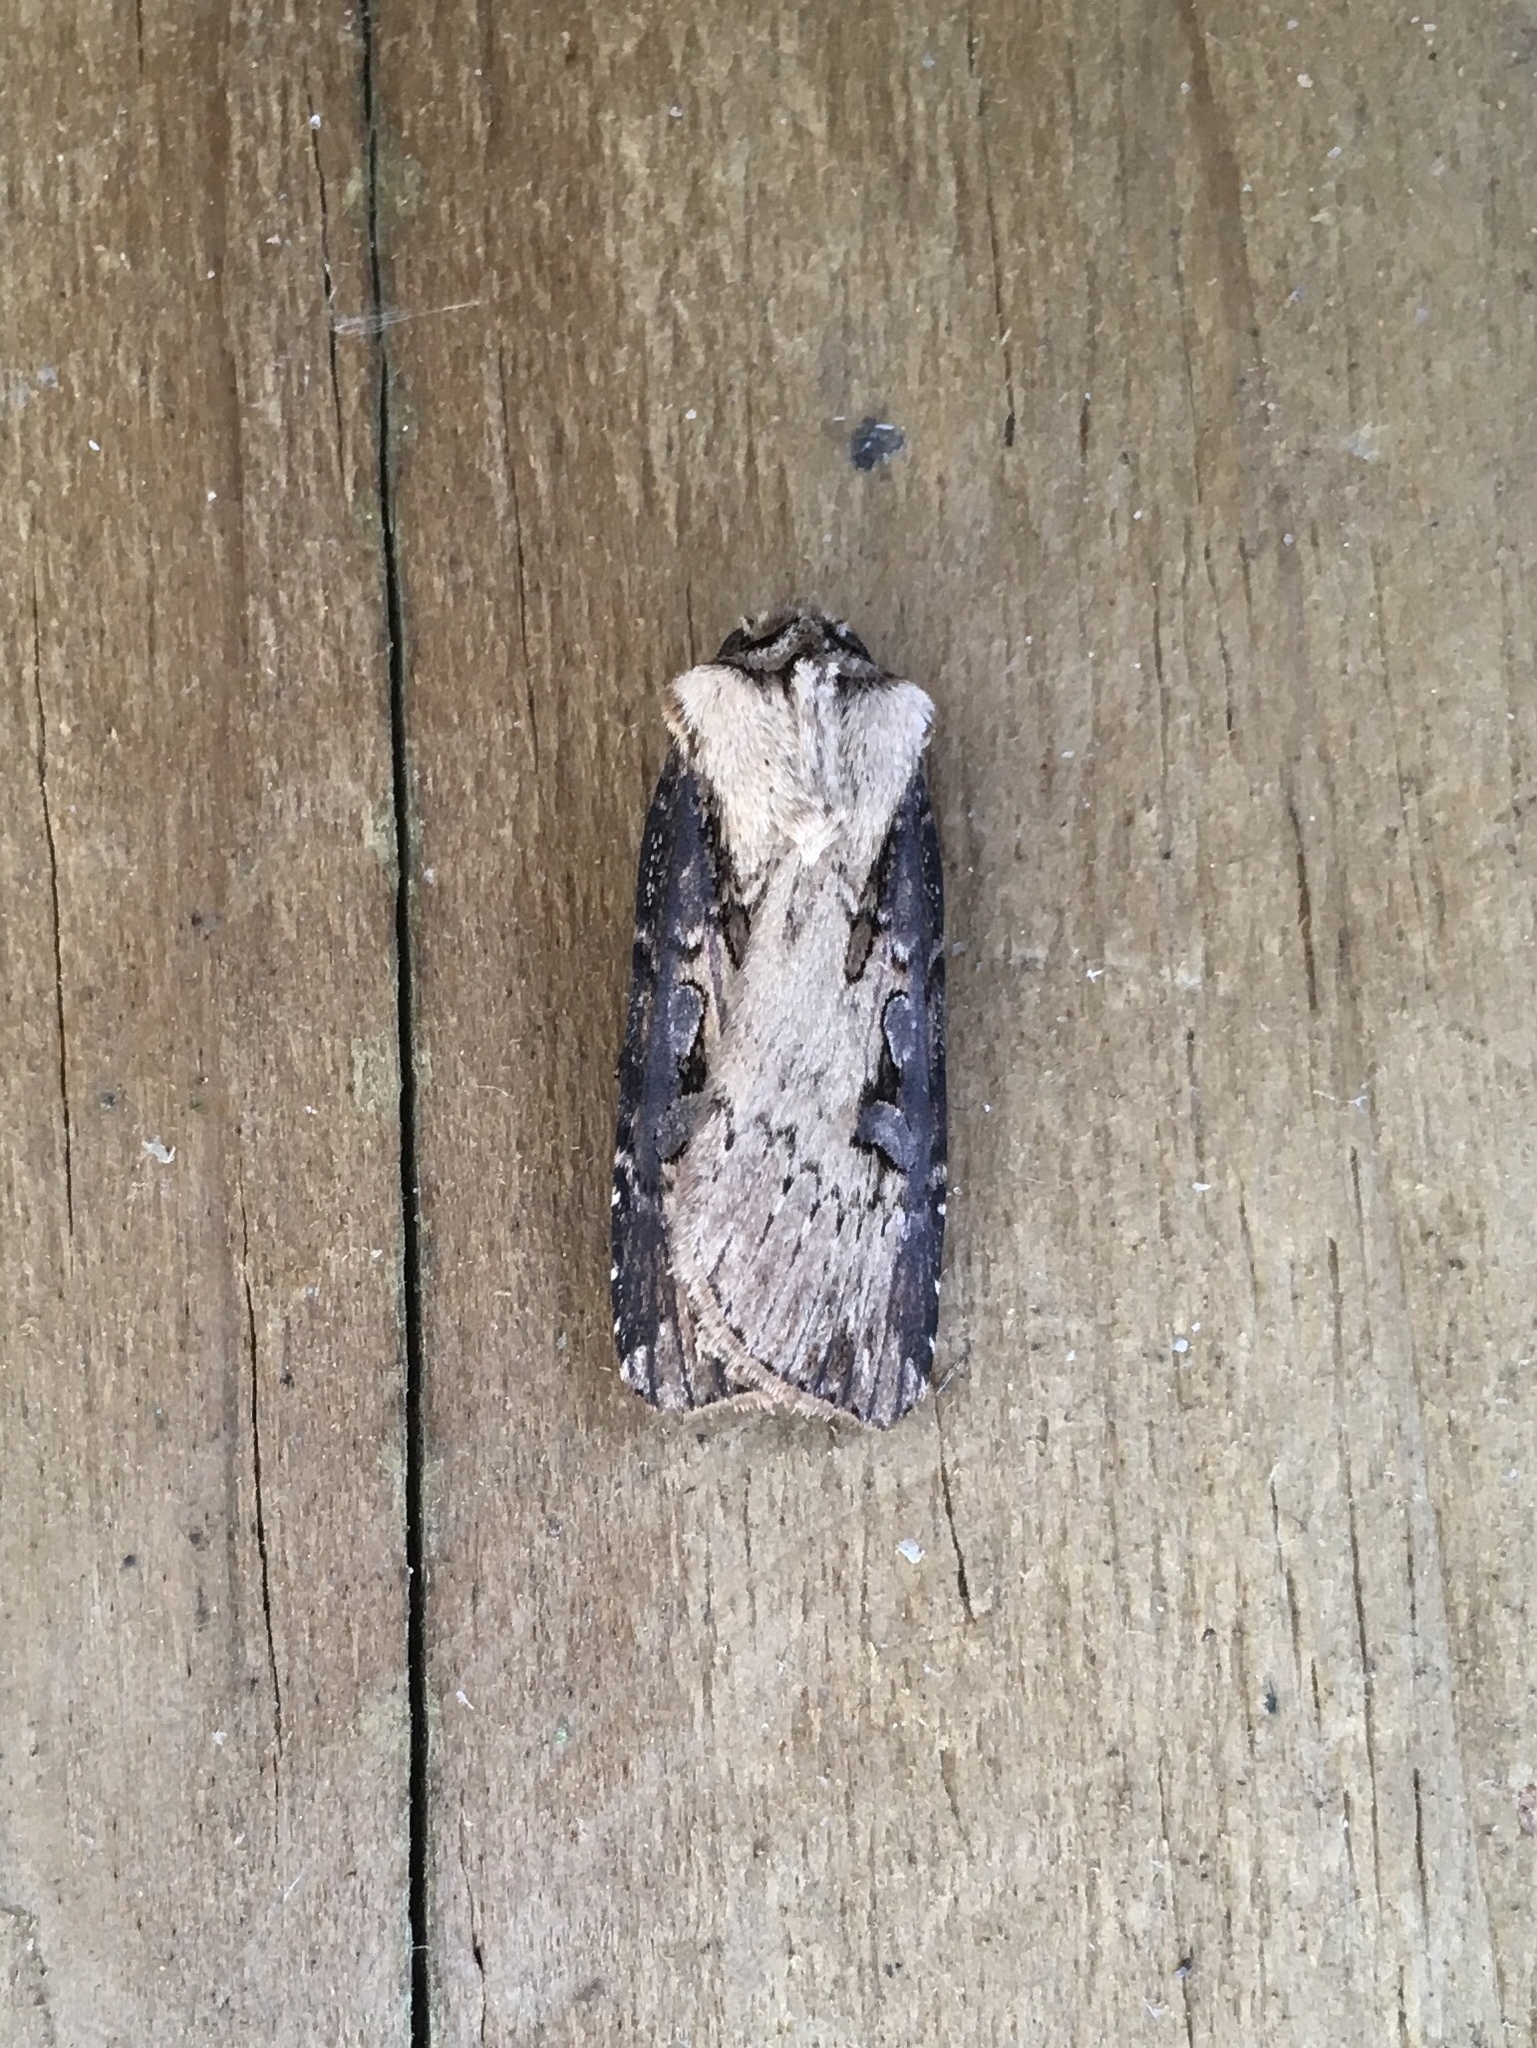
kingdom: Animalia
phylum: Arthropoda
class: Insecta
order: Lepidoptera
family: Noctuidae
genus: Agrotis
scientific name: Agrotis volubilis
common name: Voluble dart
